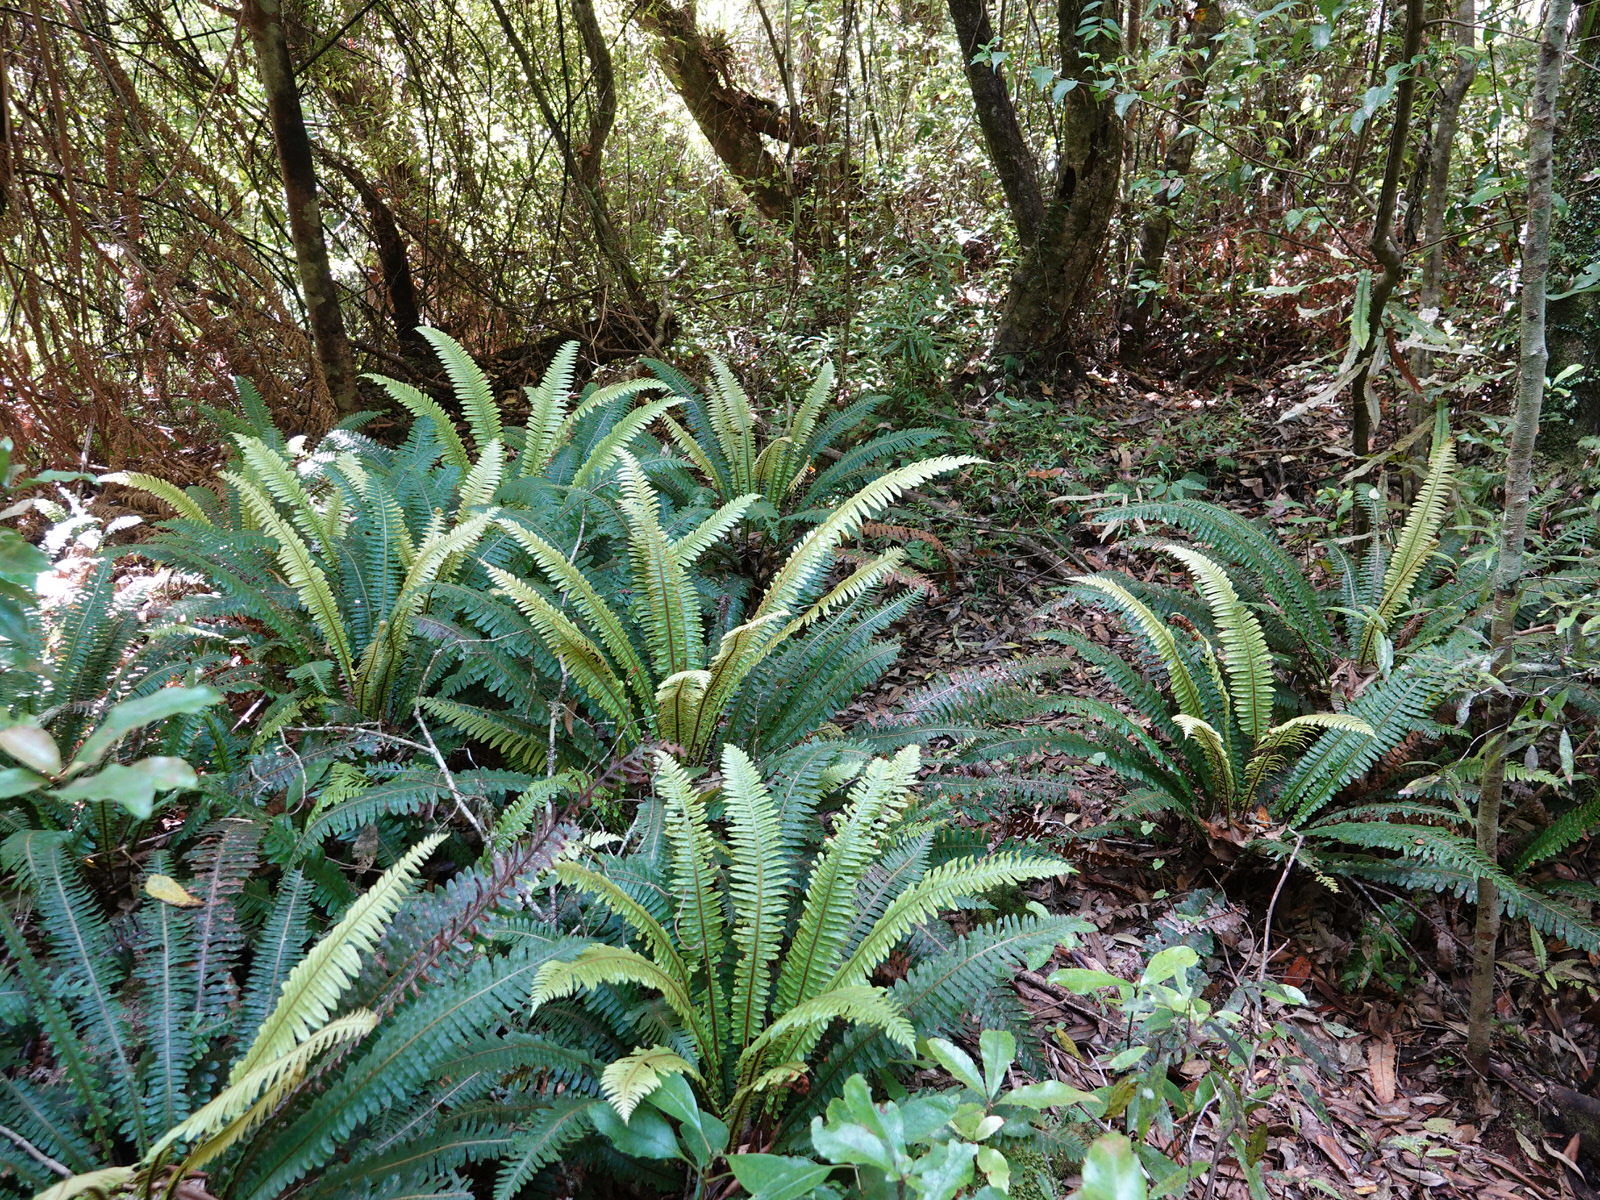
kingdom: Plantae
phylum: Tracheophyta
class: Polypodiopsida
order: Polypodiales
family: Blechnaceae
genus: Lomaria
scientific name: Lomaria discolor
